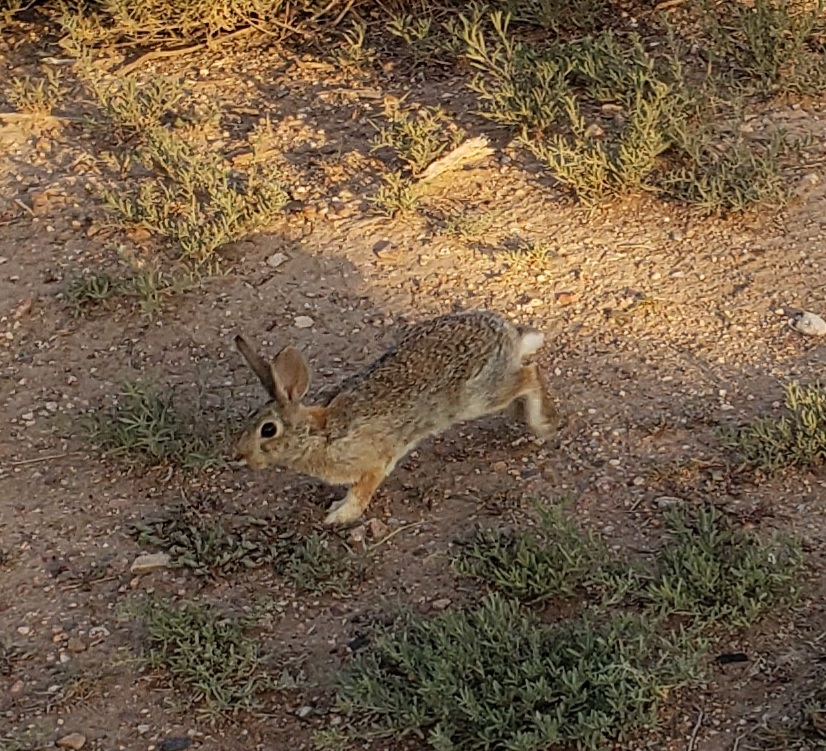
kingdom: Animalia
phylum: Chordata
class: Mammalia
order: Lagomorpha
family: Leporidae
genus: Sylvilagus
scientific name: Sylvilagus audubonii
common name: Desert cottontail
